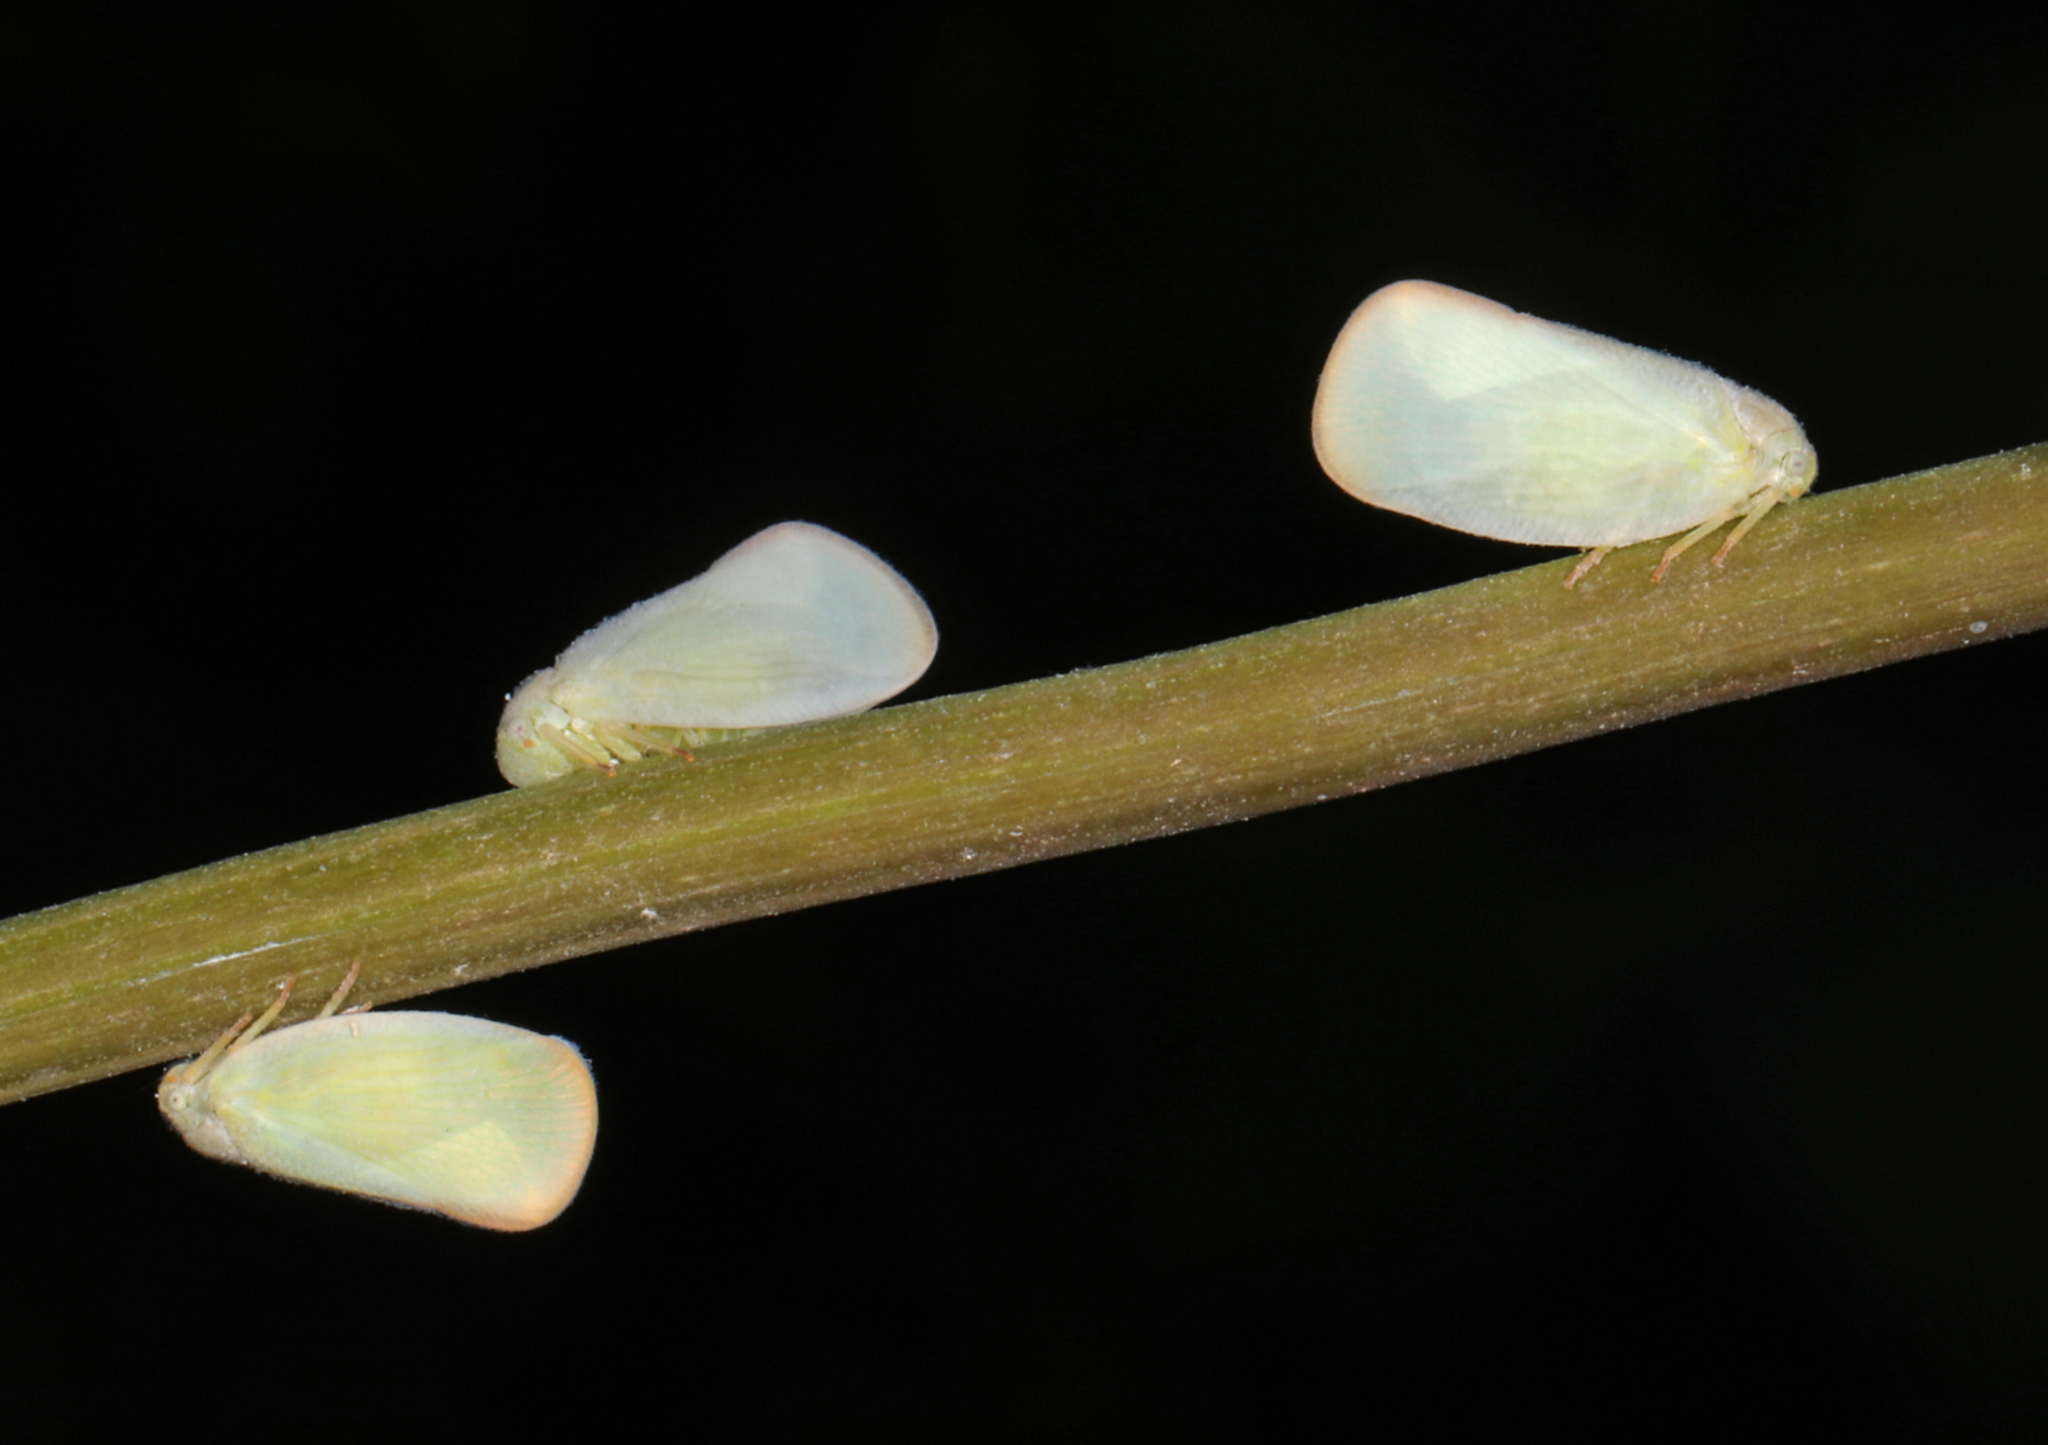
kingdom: Animalia
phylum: Arthropoda
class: Insecta
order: Hemiptera
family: Flatidae
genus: Ormenoides
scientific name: Ormenoides venusta
